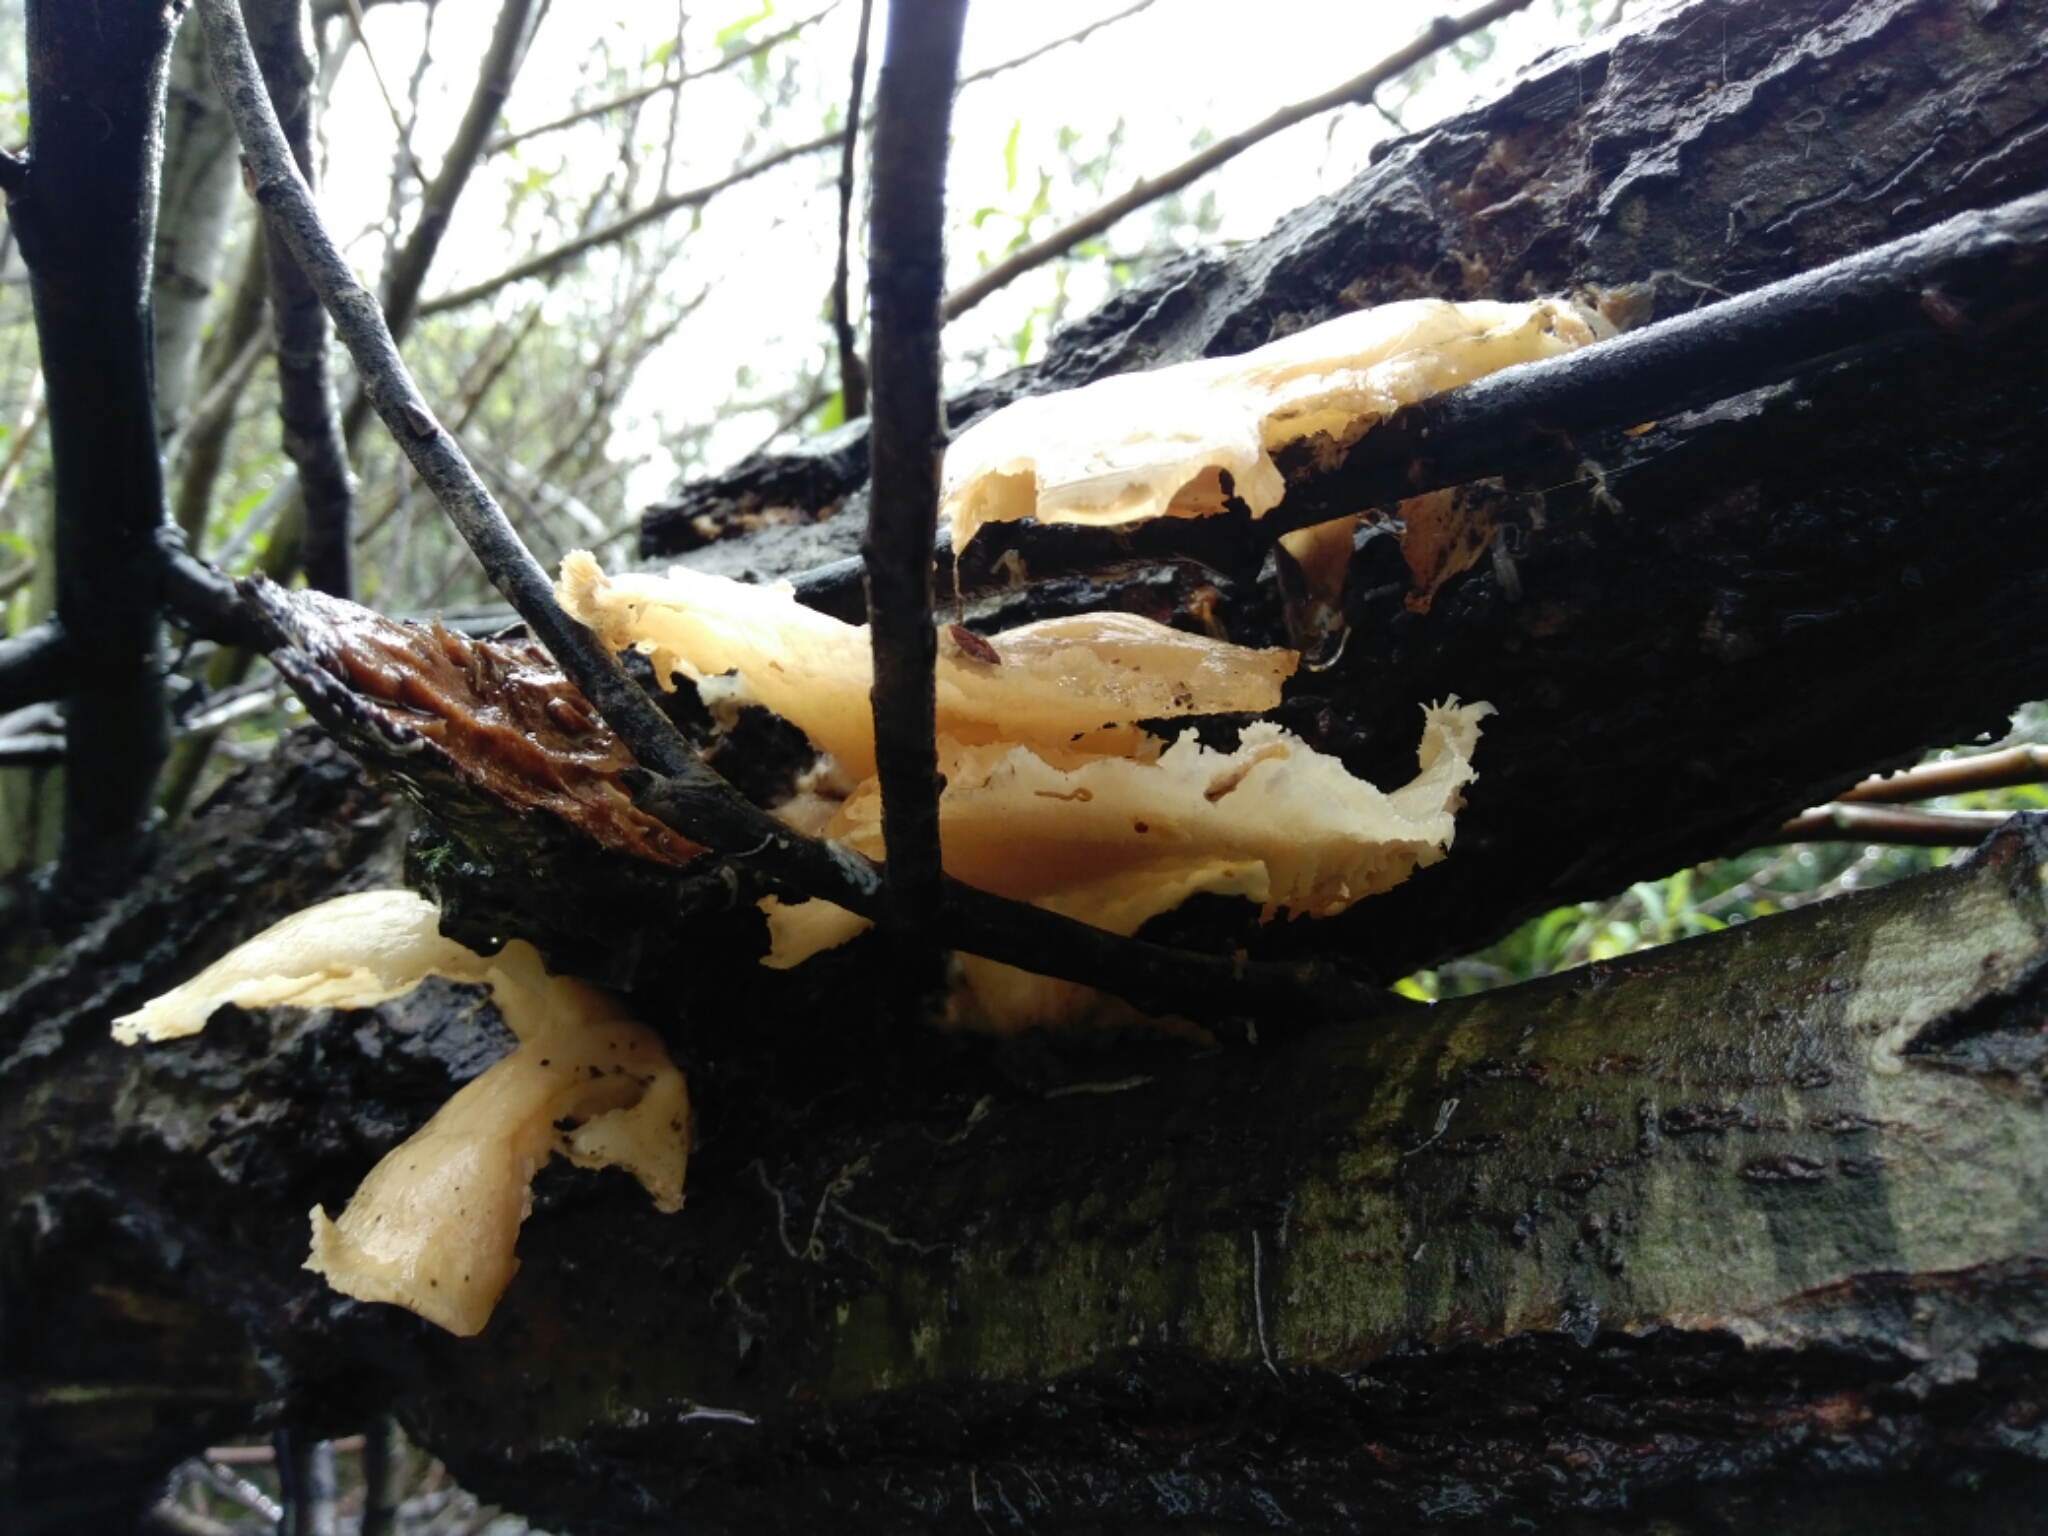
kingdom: Fungi
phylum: Basidiomycota
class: Agaricomycetes
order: Agaricales
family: Pleurotaceae
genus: Pleurotus
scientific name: Pleurotus ostreatus
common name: Oyster mushroom
